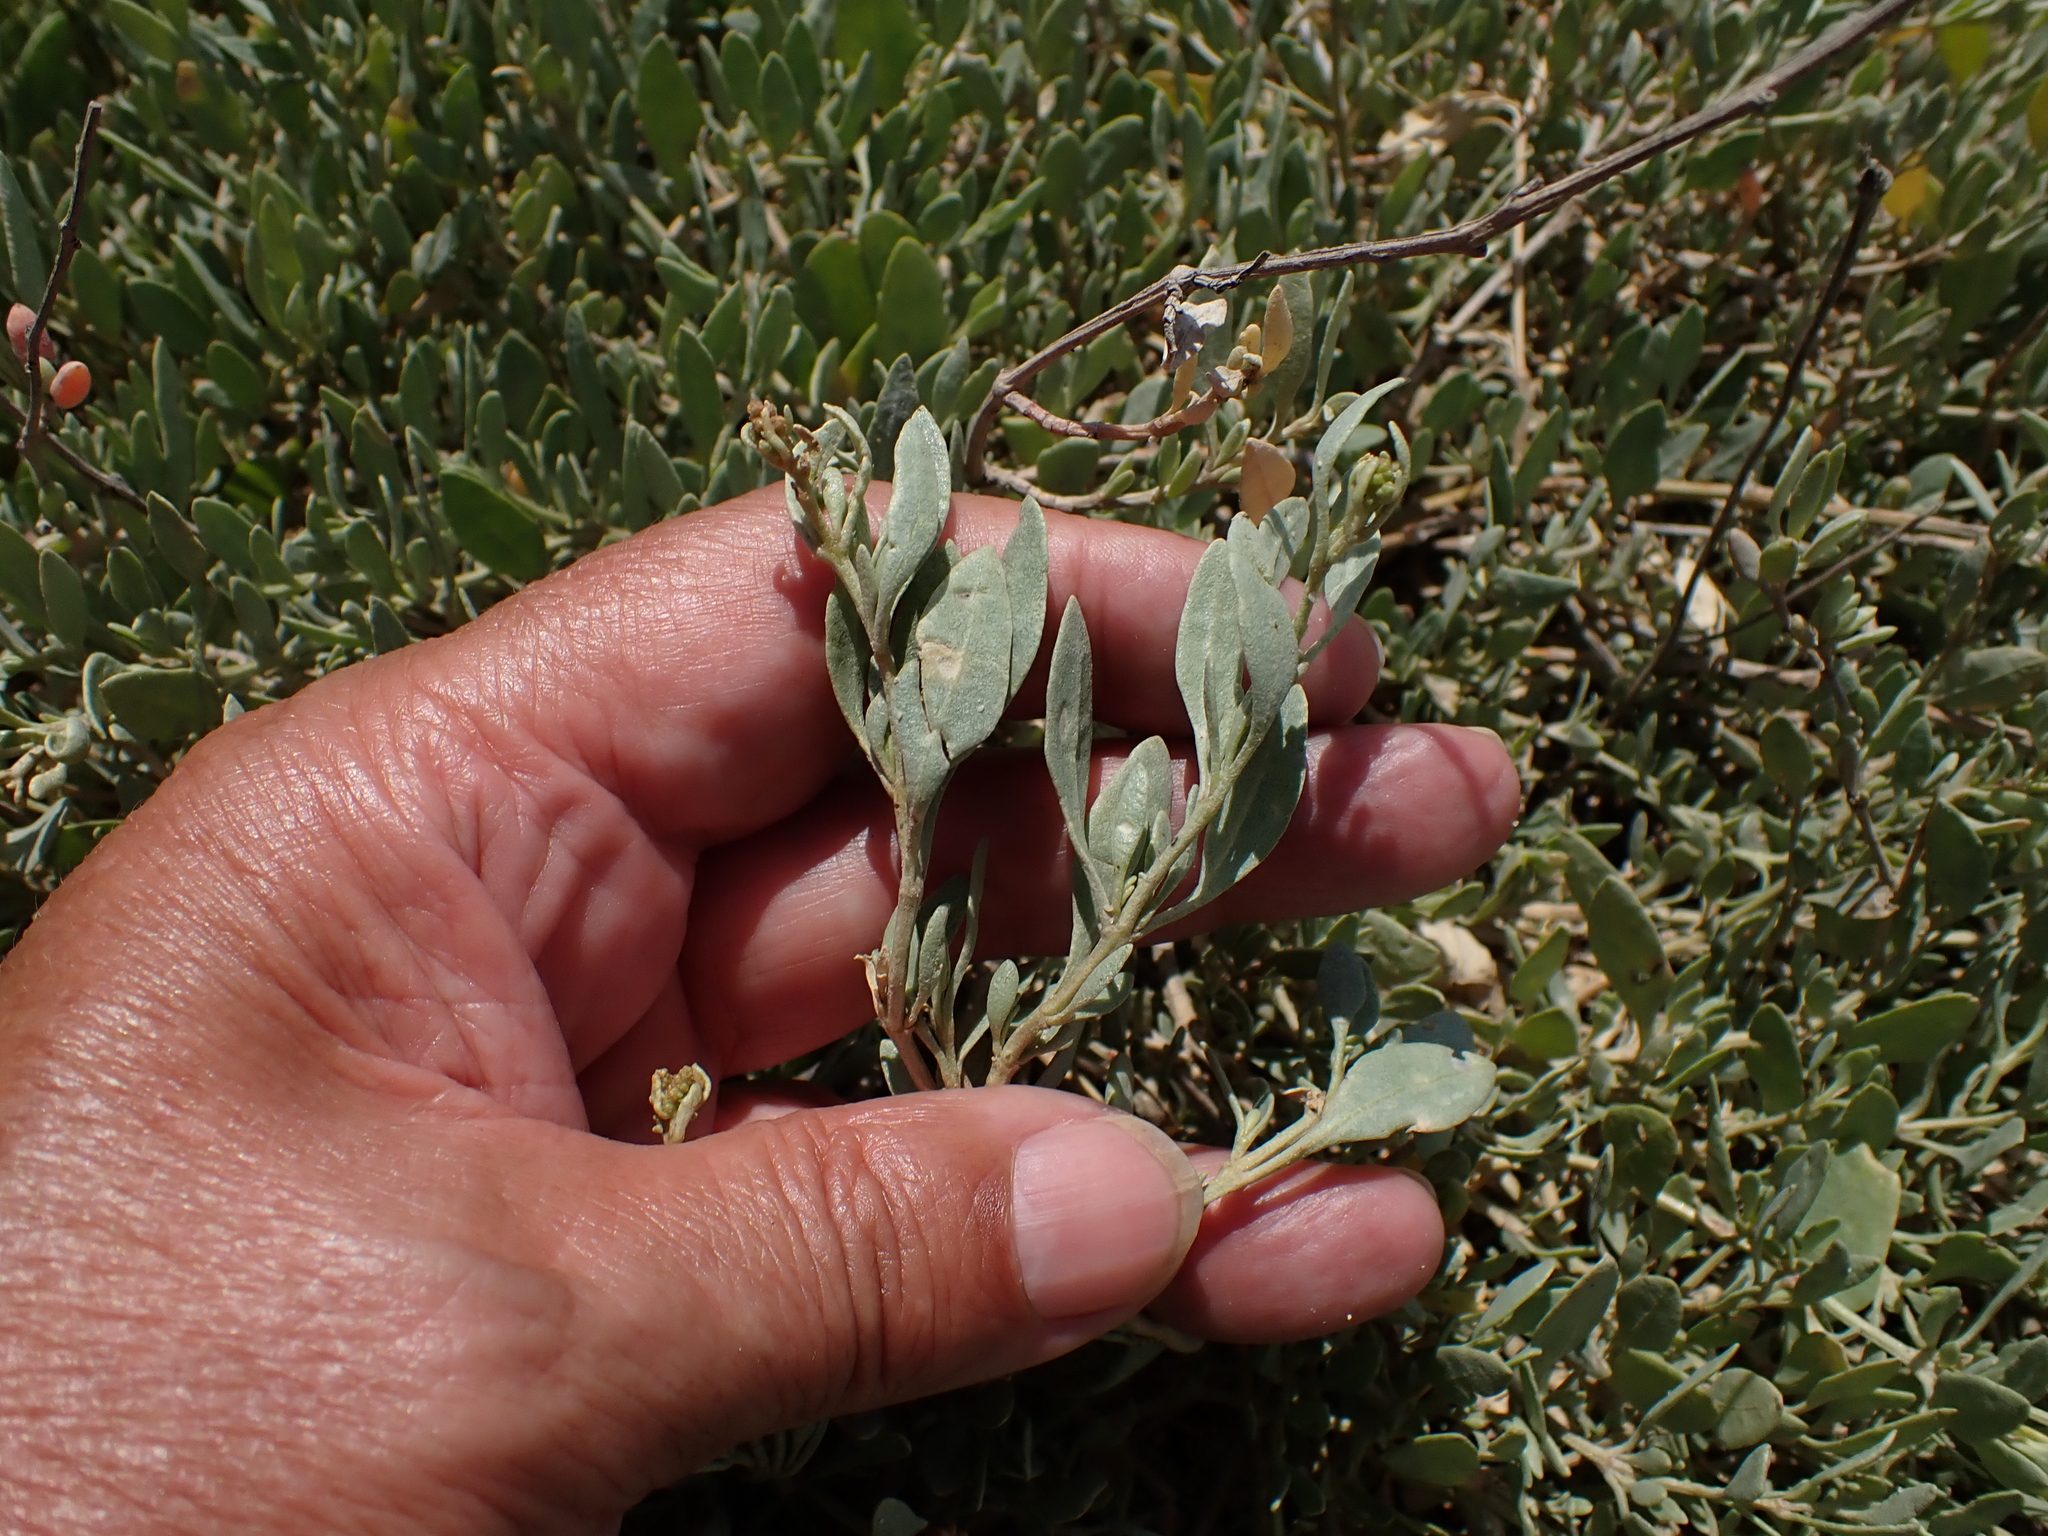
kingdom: Plantae
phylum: Tracheophyta
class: Magnoliopsida
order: Caryophyllales
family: Amaranthaceae
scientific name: Amaranthaceae
